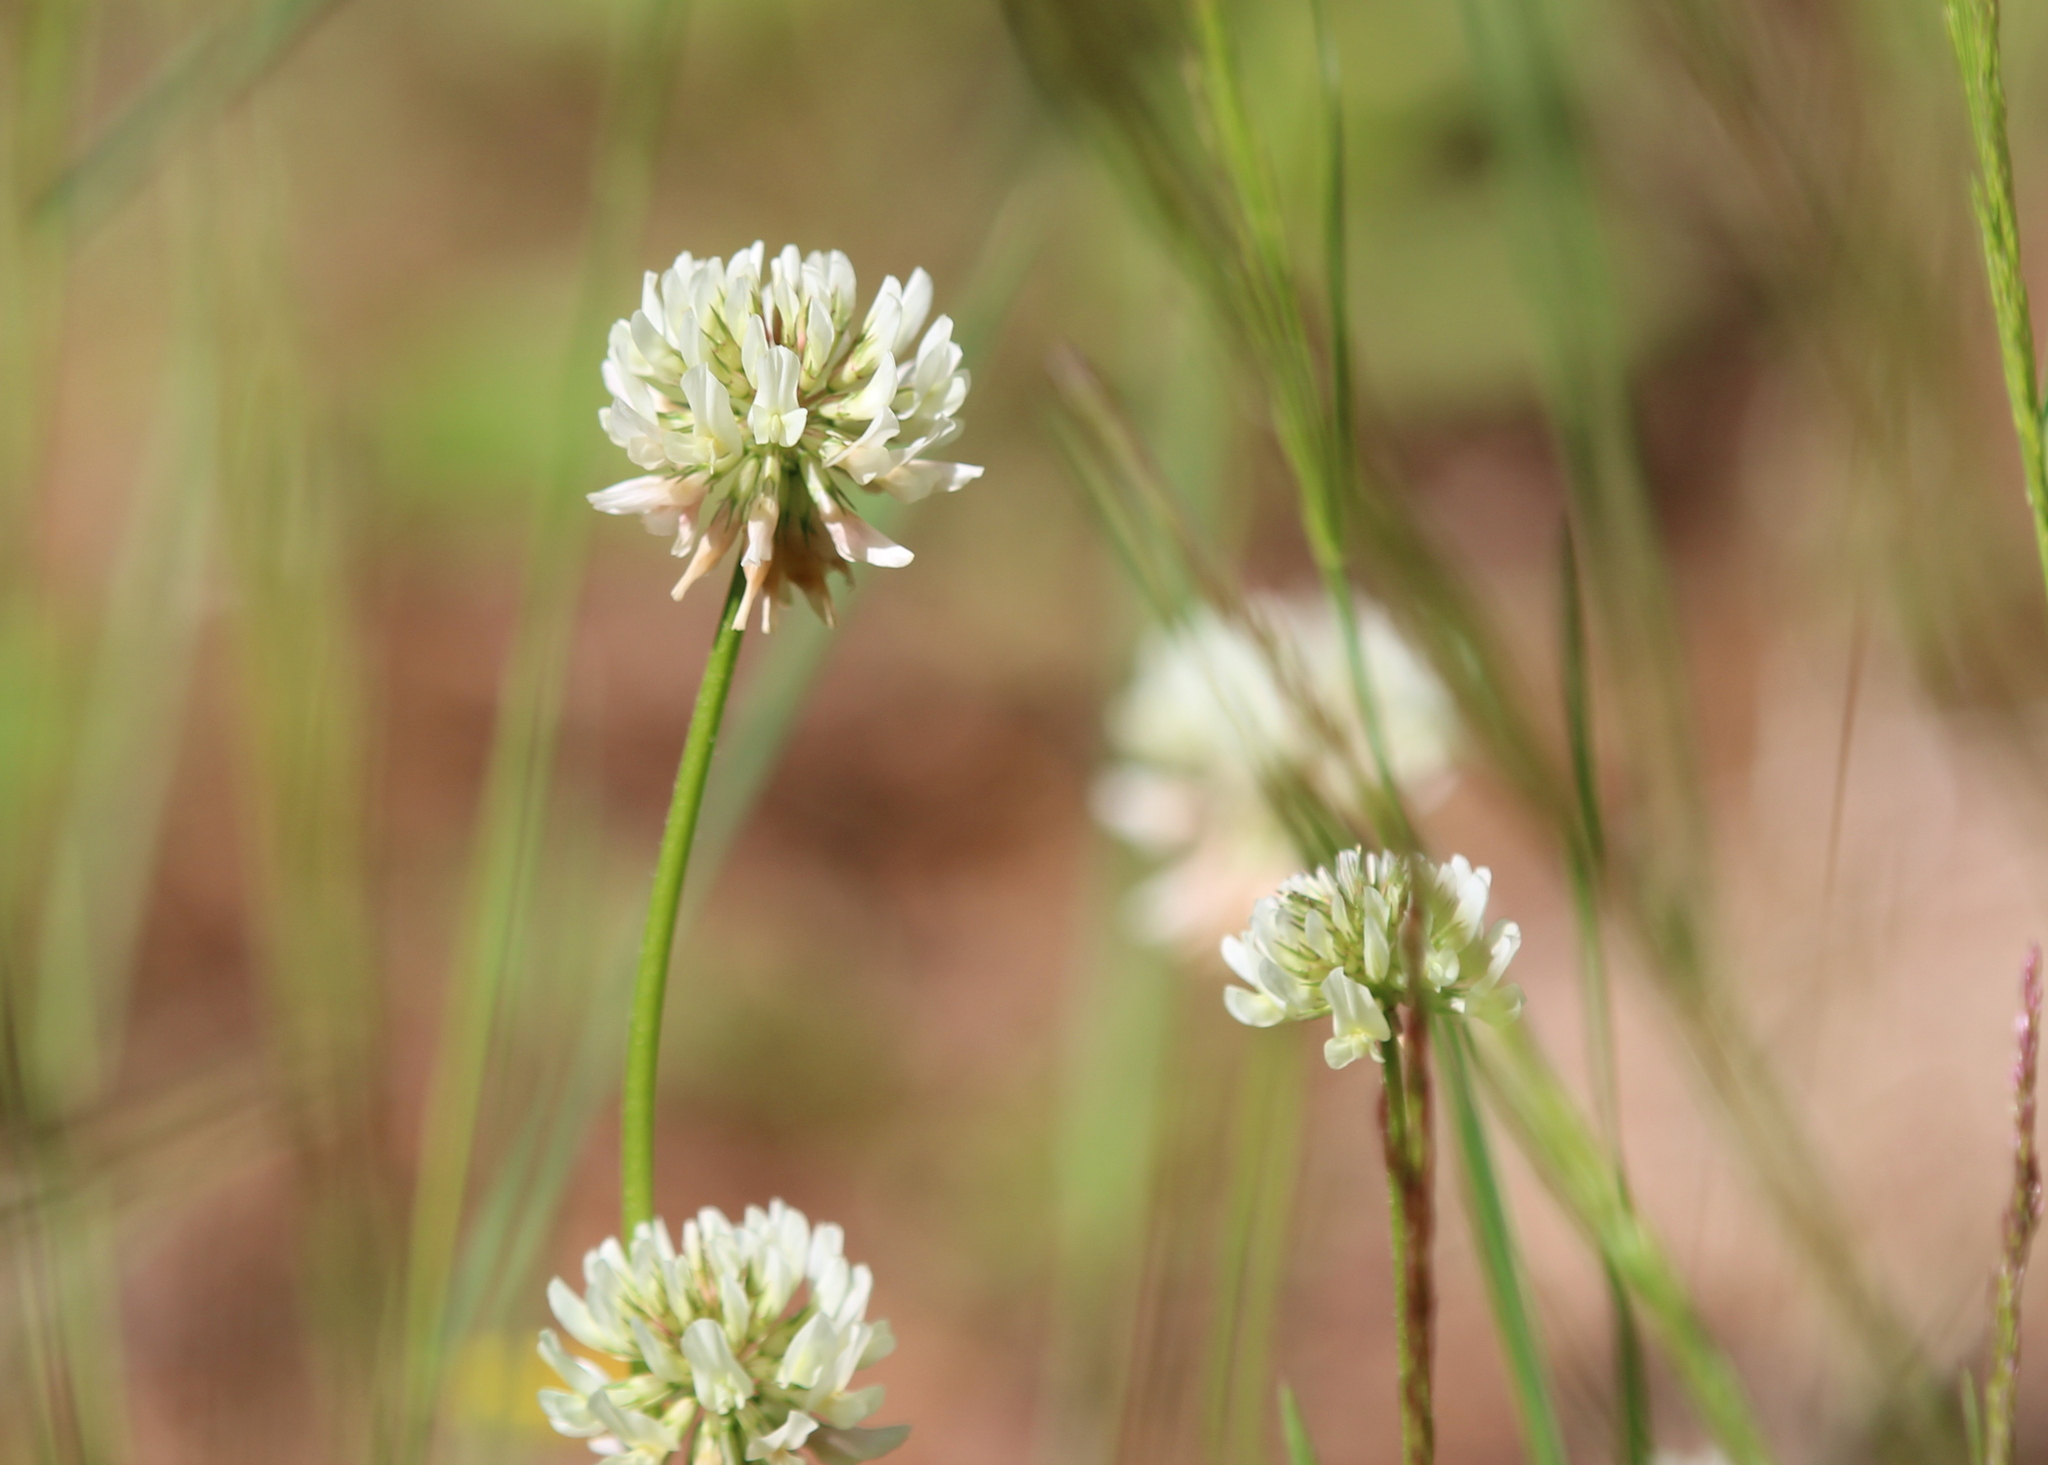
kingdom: Plantae
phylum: Tracheophyta
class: Magnoliopsida
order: Fabales
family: Fabaceae
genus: Trifolium
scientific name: Trifolium repens
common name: White clover
